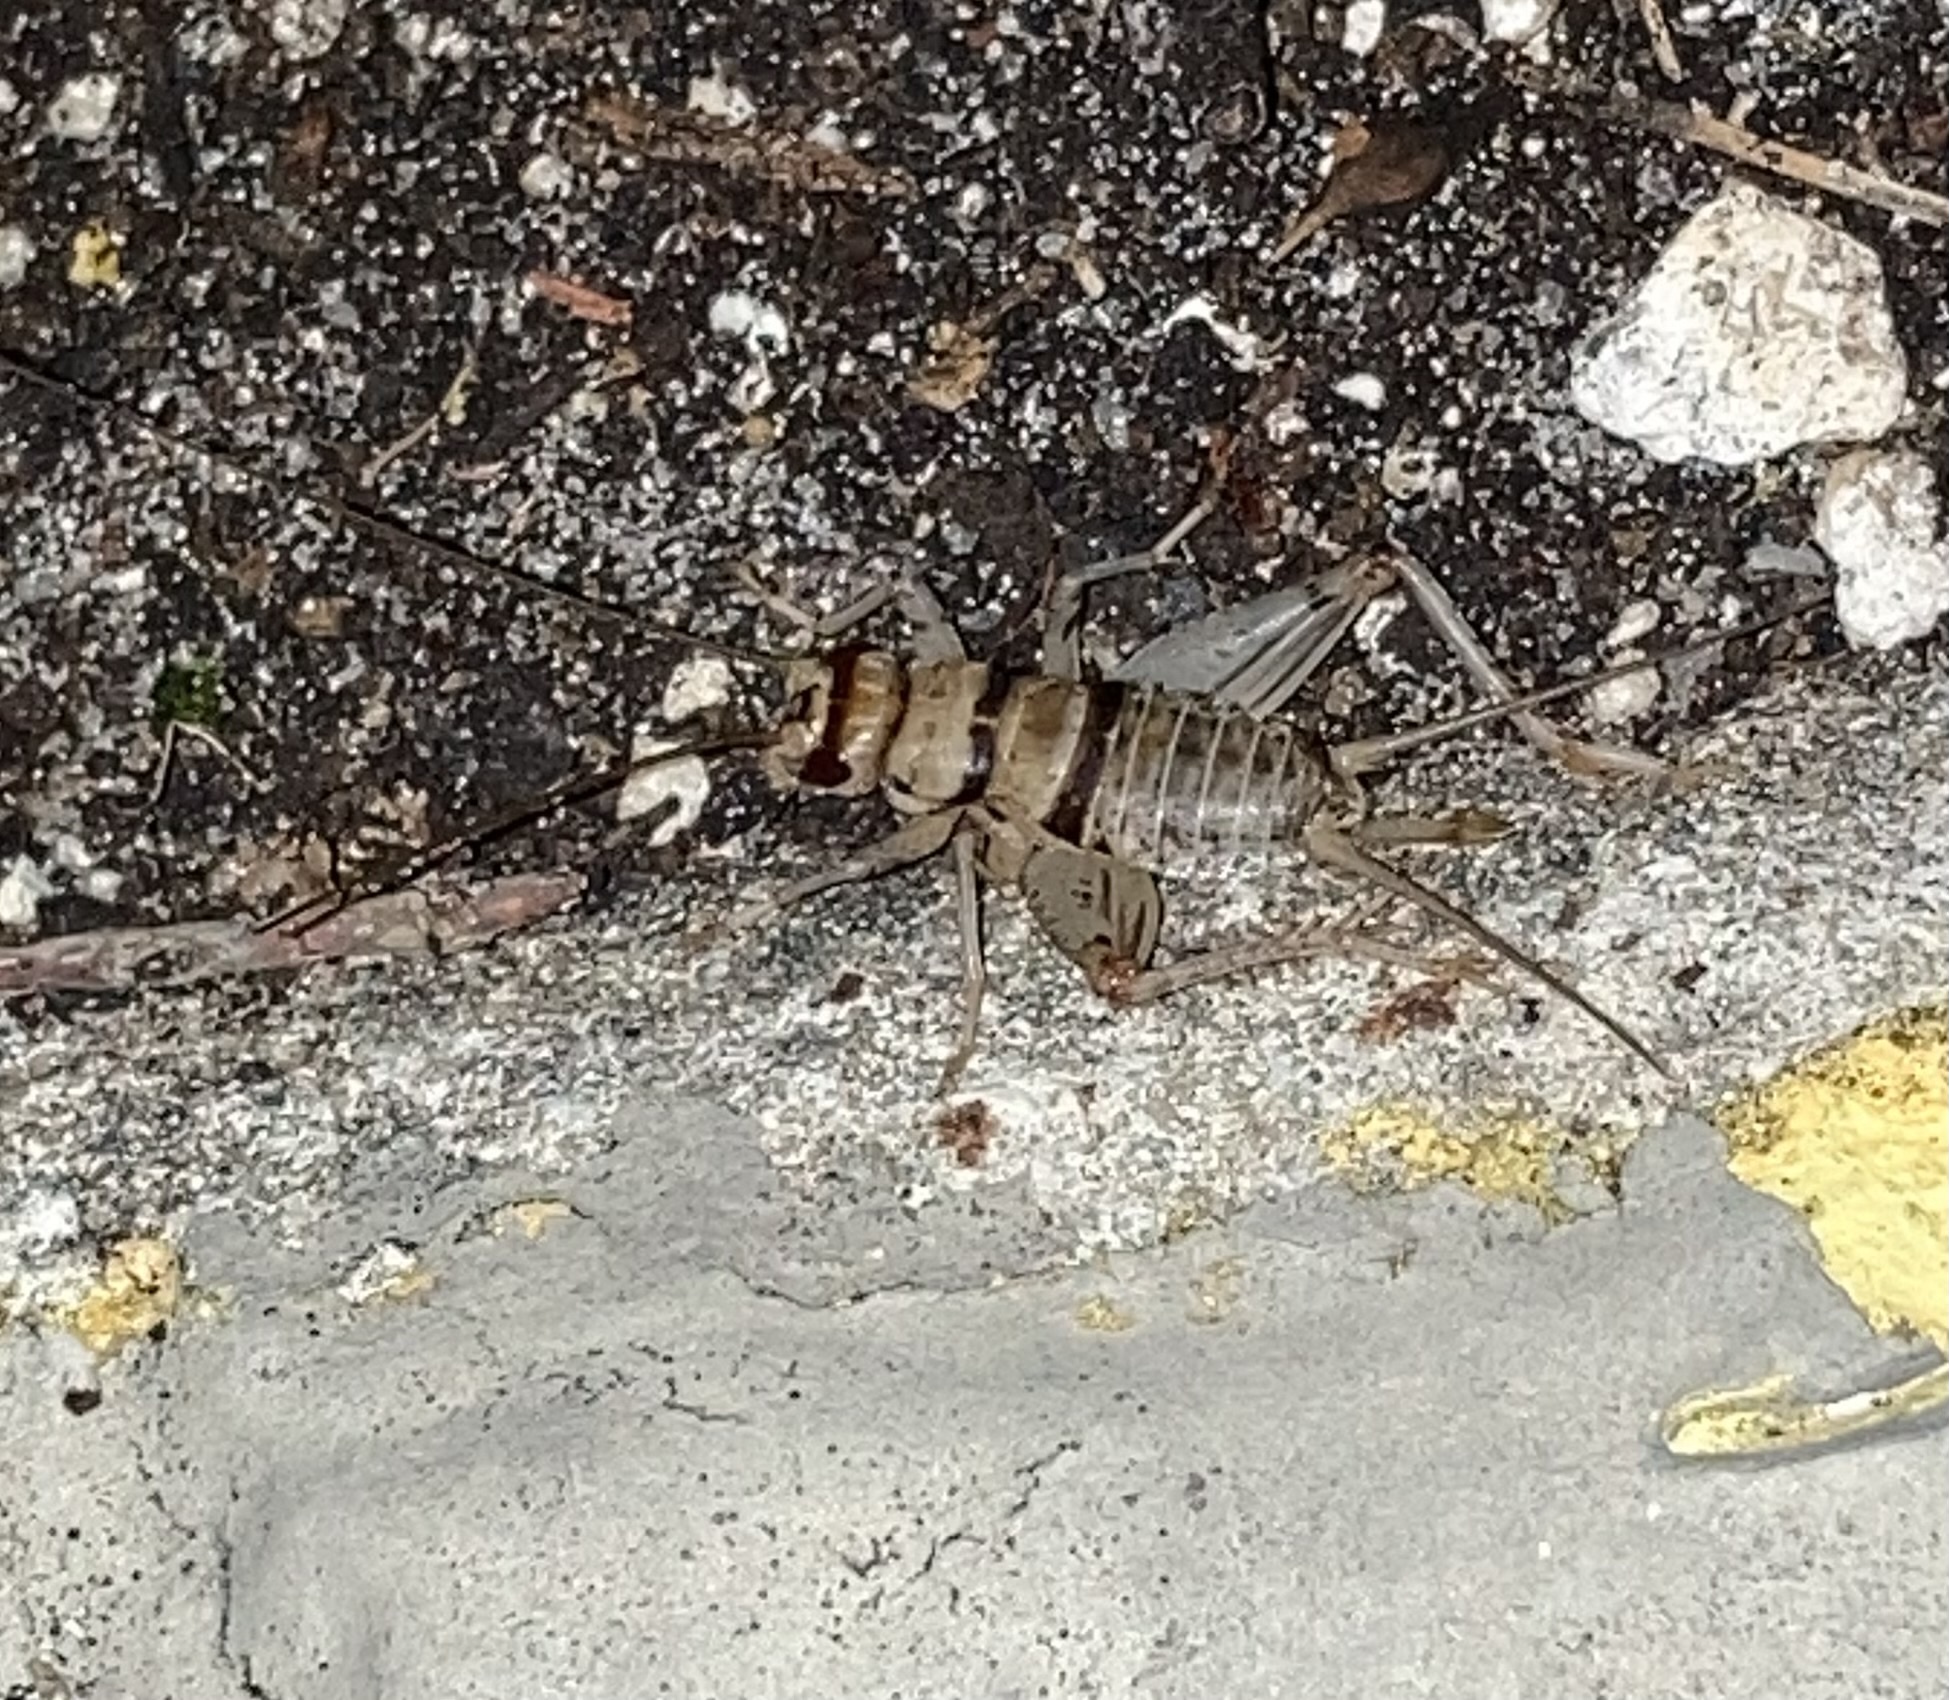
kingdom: Animalia
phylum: Arthropoda
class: Insecta
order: Orthoptera
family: Gryllidae
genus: Gryllodes
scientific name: Gryllodes sigillatus
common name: Tropical house cricket
